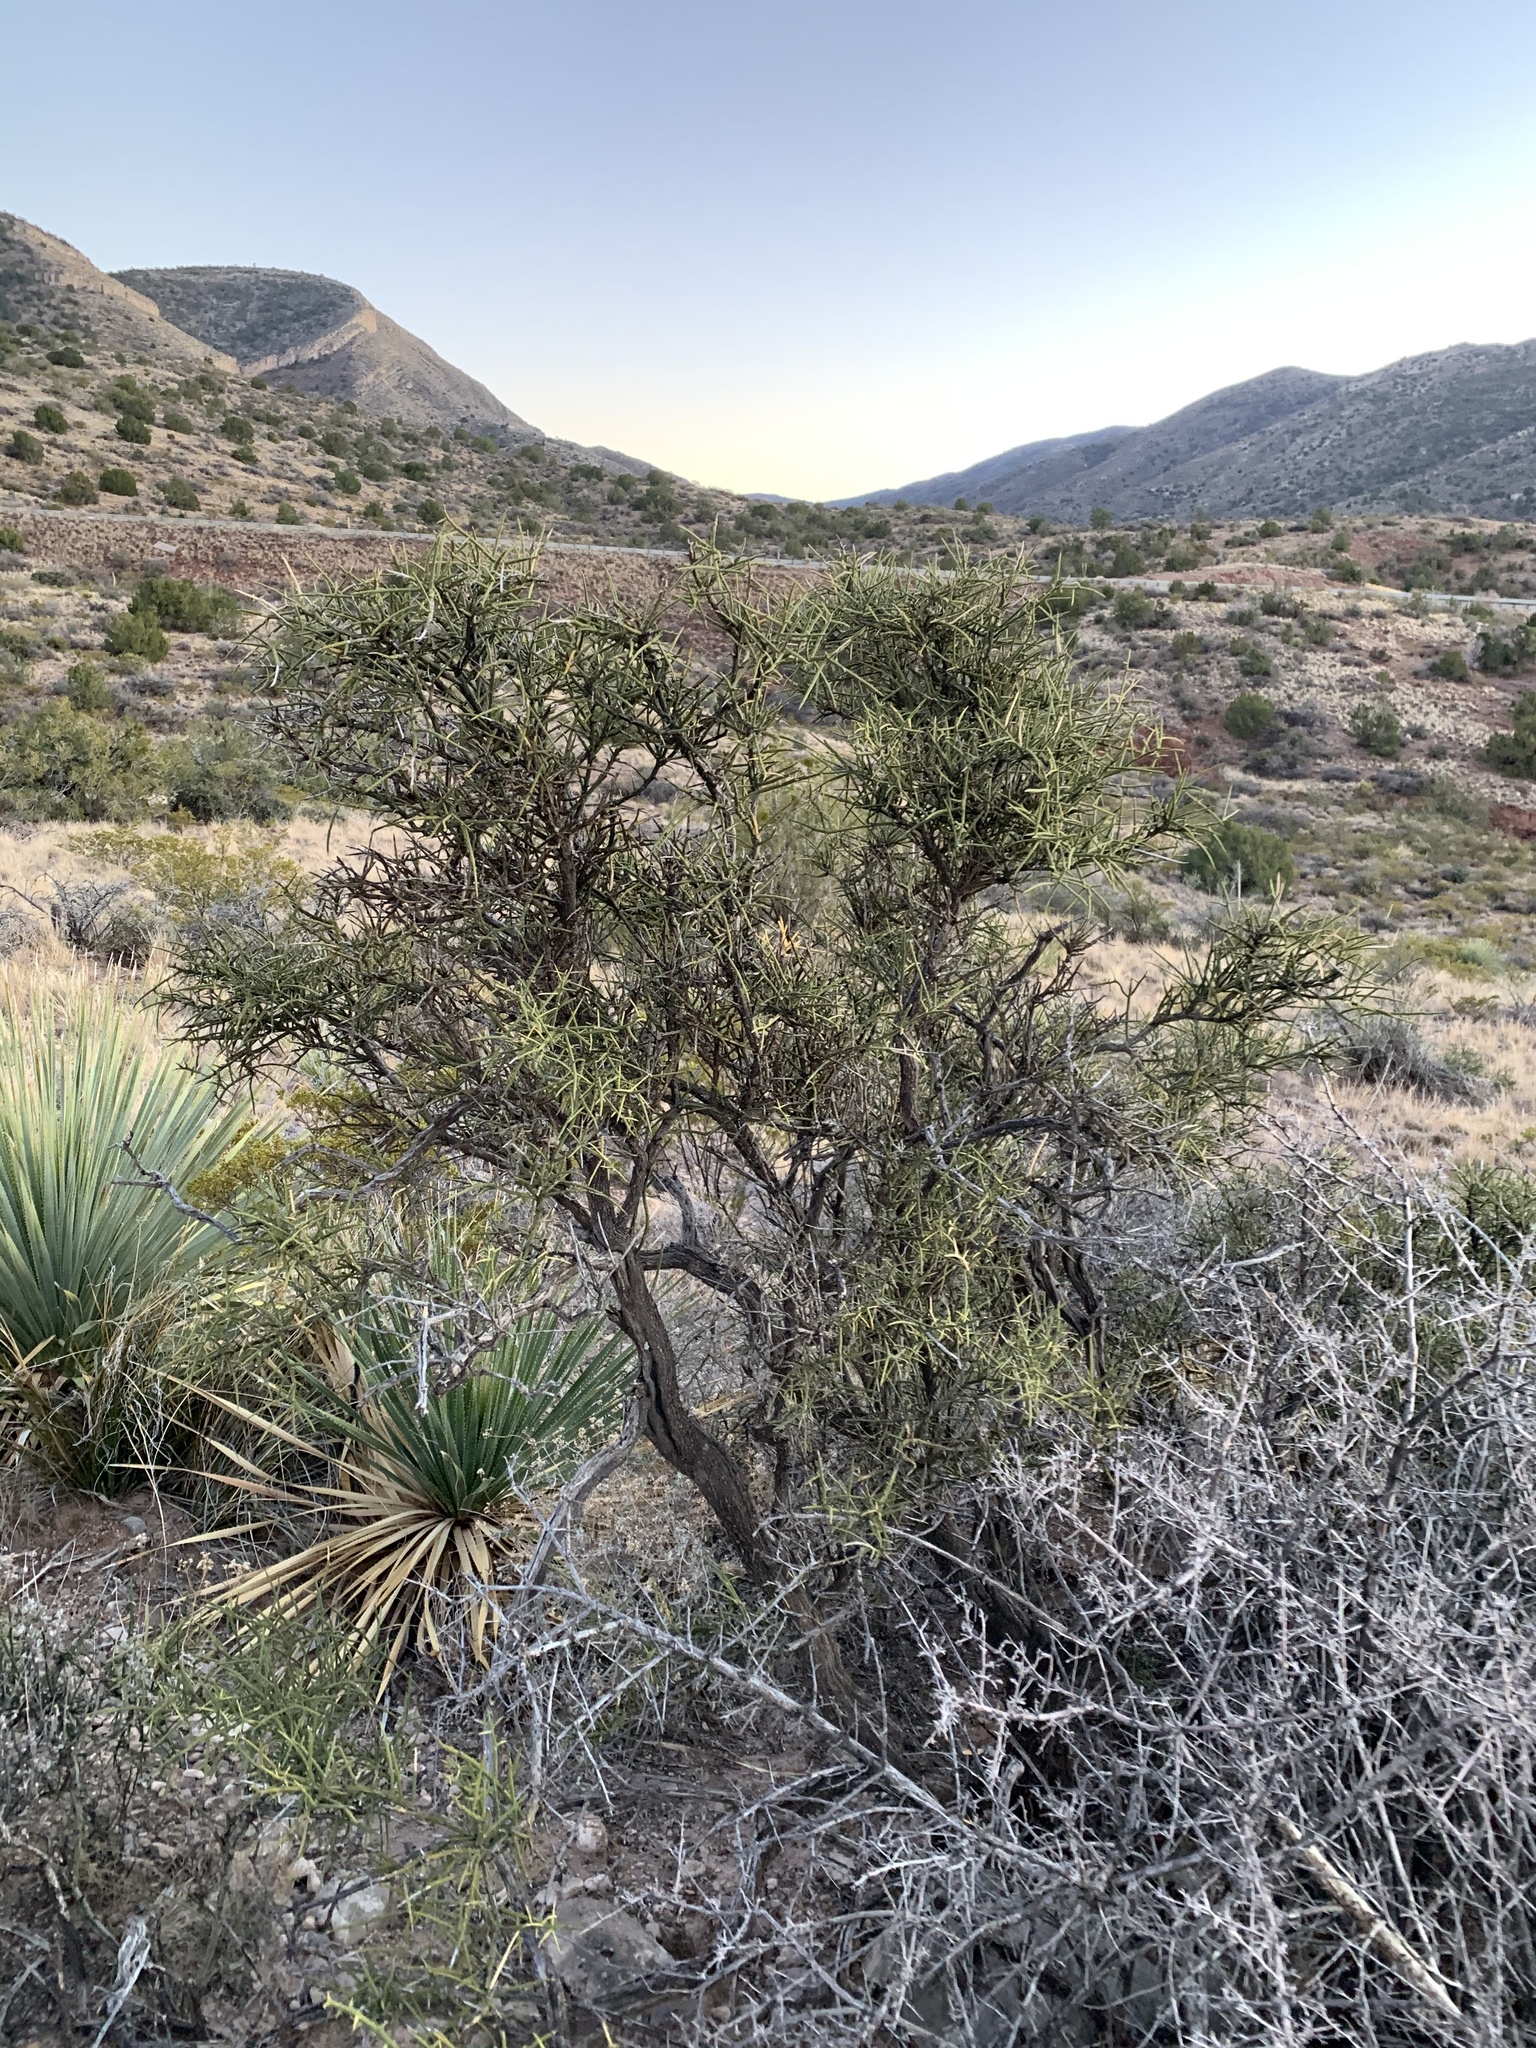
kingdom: Plantae
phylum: Tracheophyta
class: Magnoliopsida
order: Brassicales
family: Koeberliniaceae
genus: Koeberlinia
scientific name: Koeberlinia spinosa
